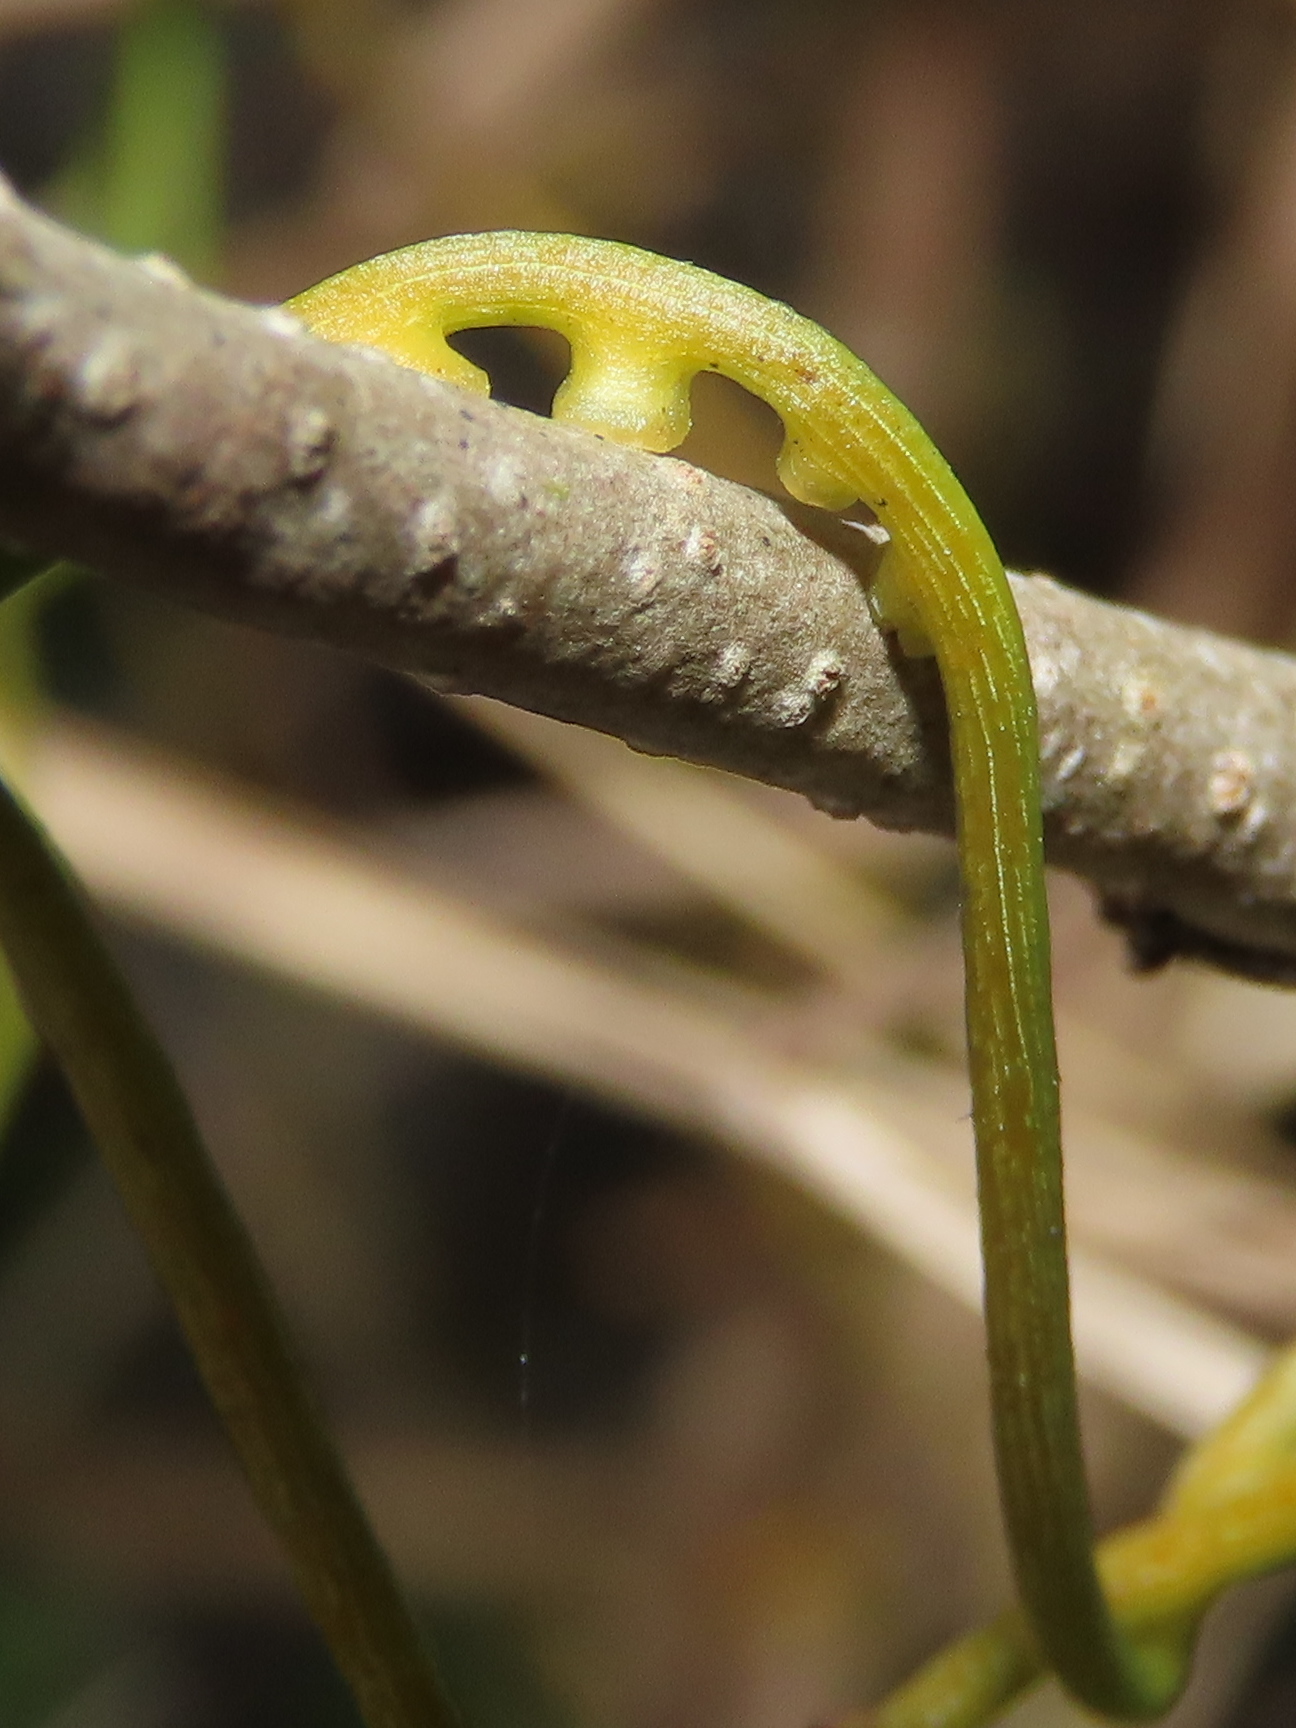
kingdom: Plantae
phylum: Tracheophyta
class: Magnoliopsida
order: Laurales
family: Lauraceae
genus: Cassytha
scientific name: Cassytha filiformis
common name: Dodder-laurel
